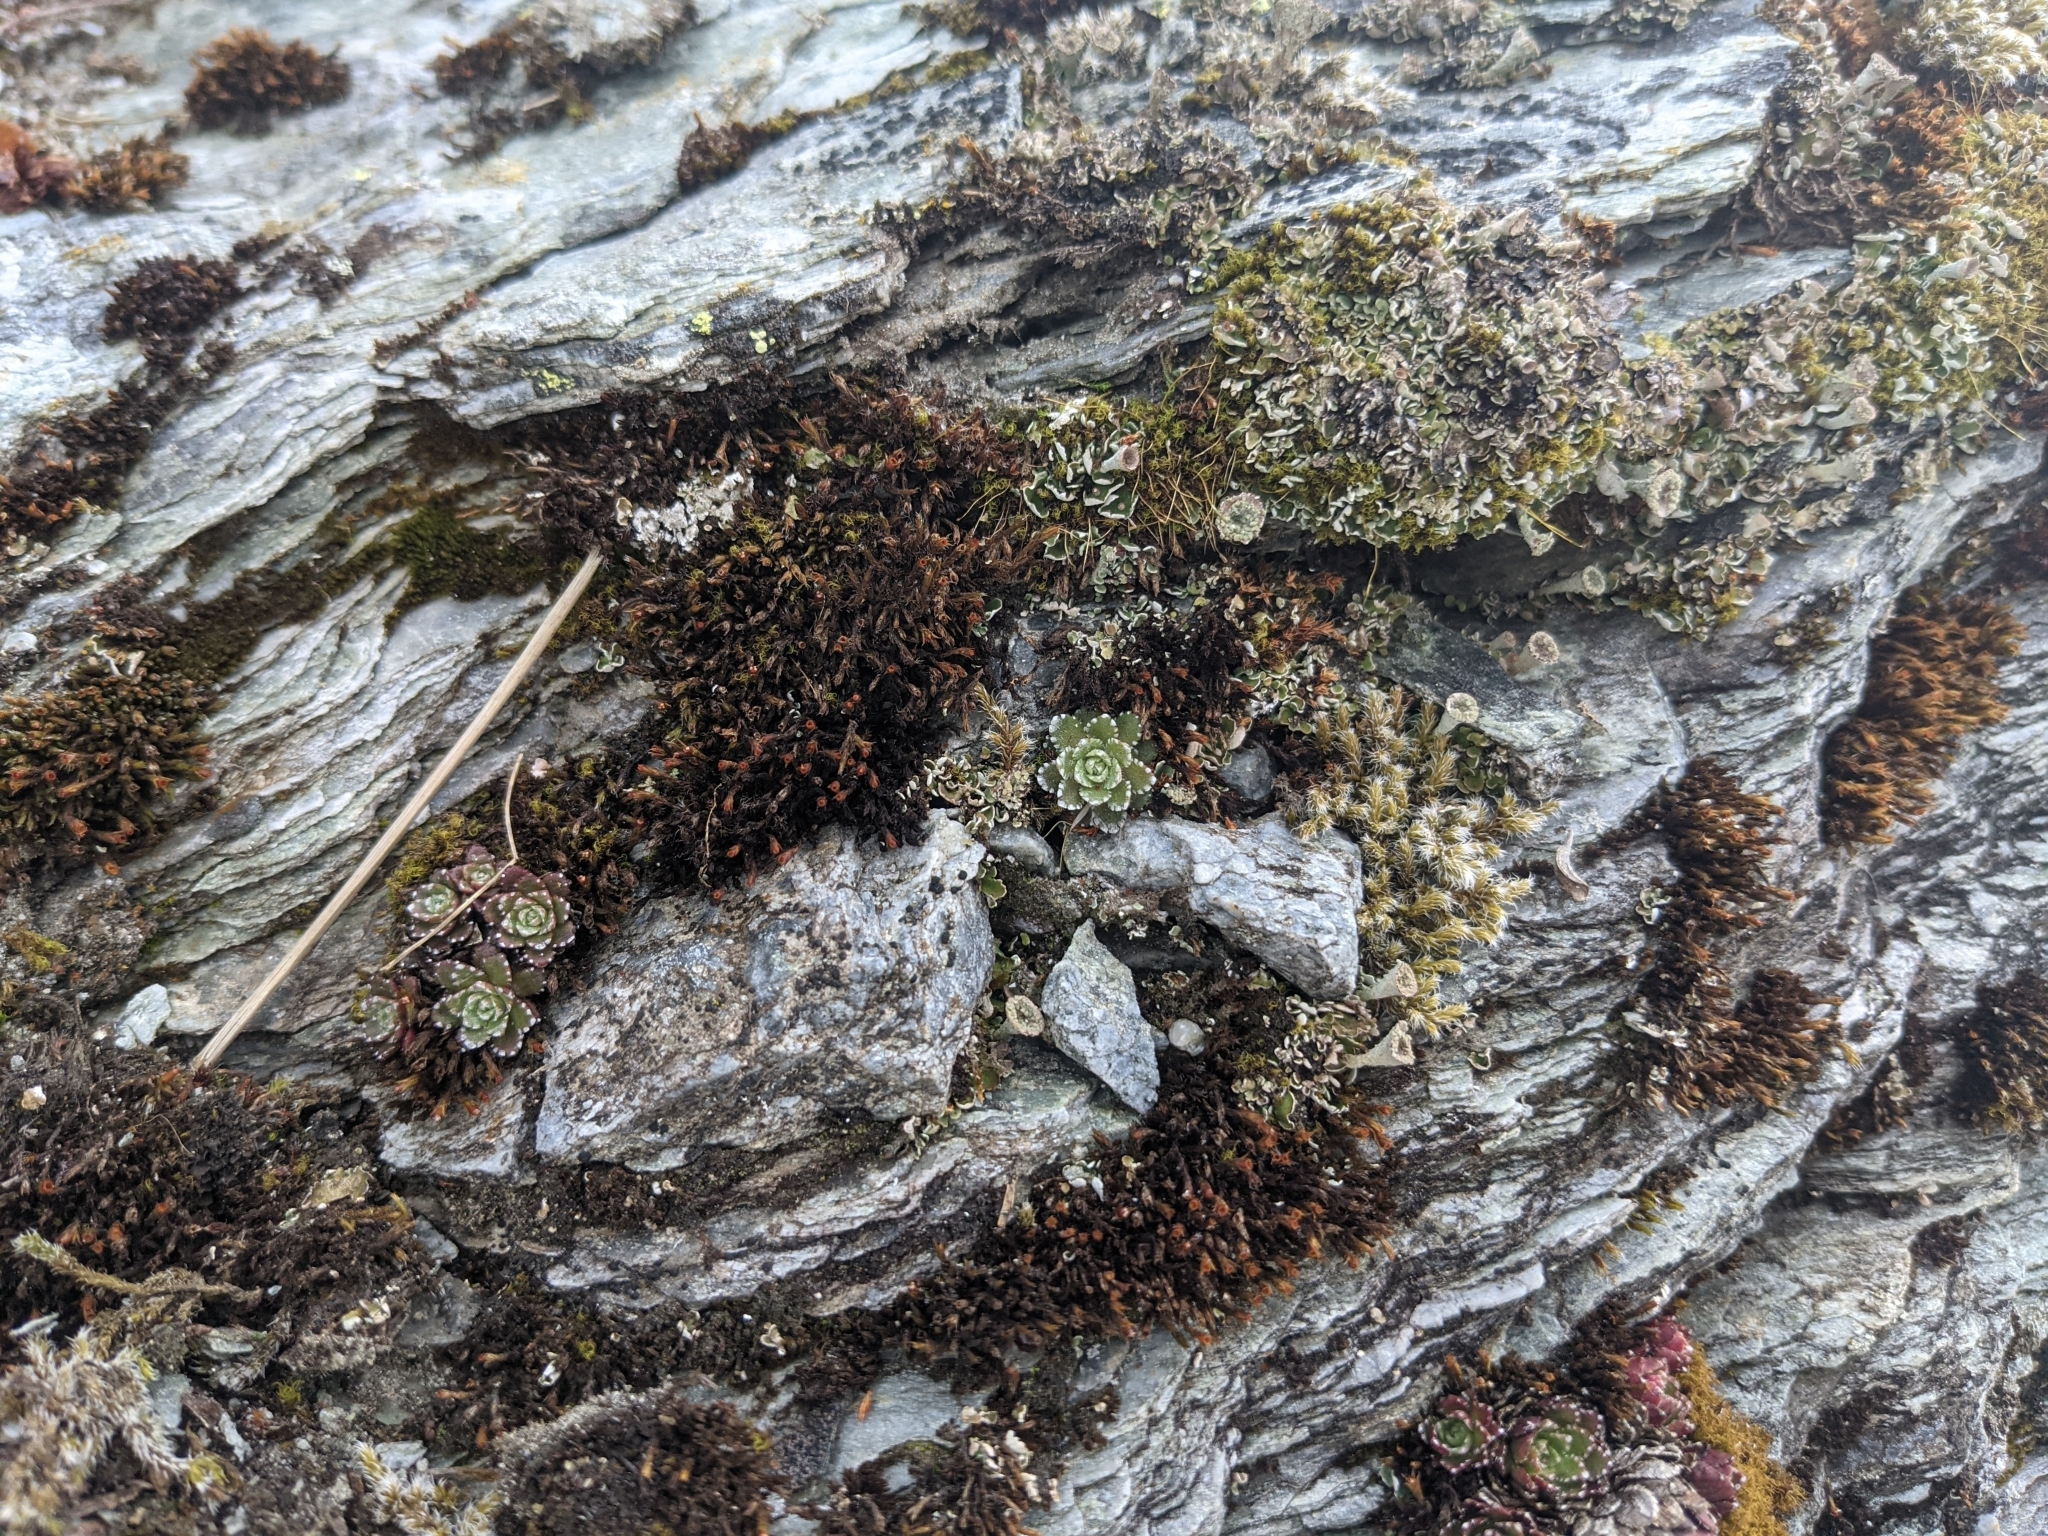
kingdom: Plantae
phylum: Tracheophyta
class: Magnoliopsida
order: Saxifragales
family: Saxifragaceae
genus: Saxifraga
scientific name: Saxifraga paniculata
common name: Livelong saxifrage
